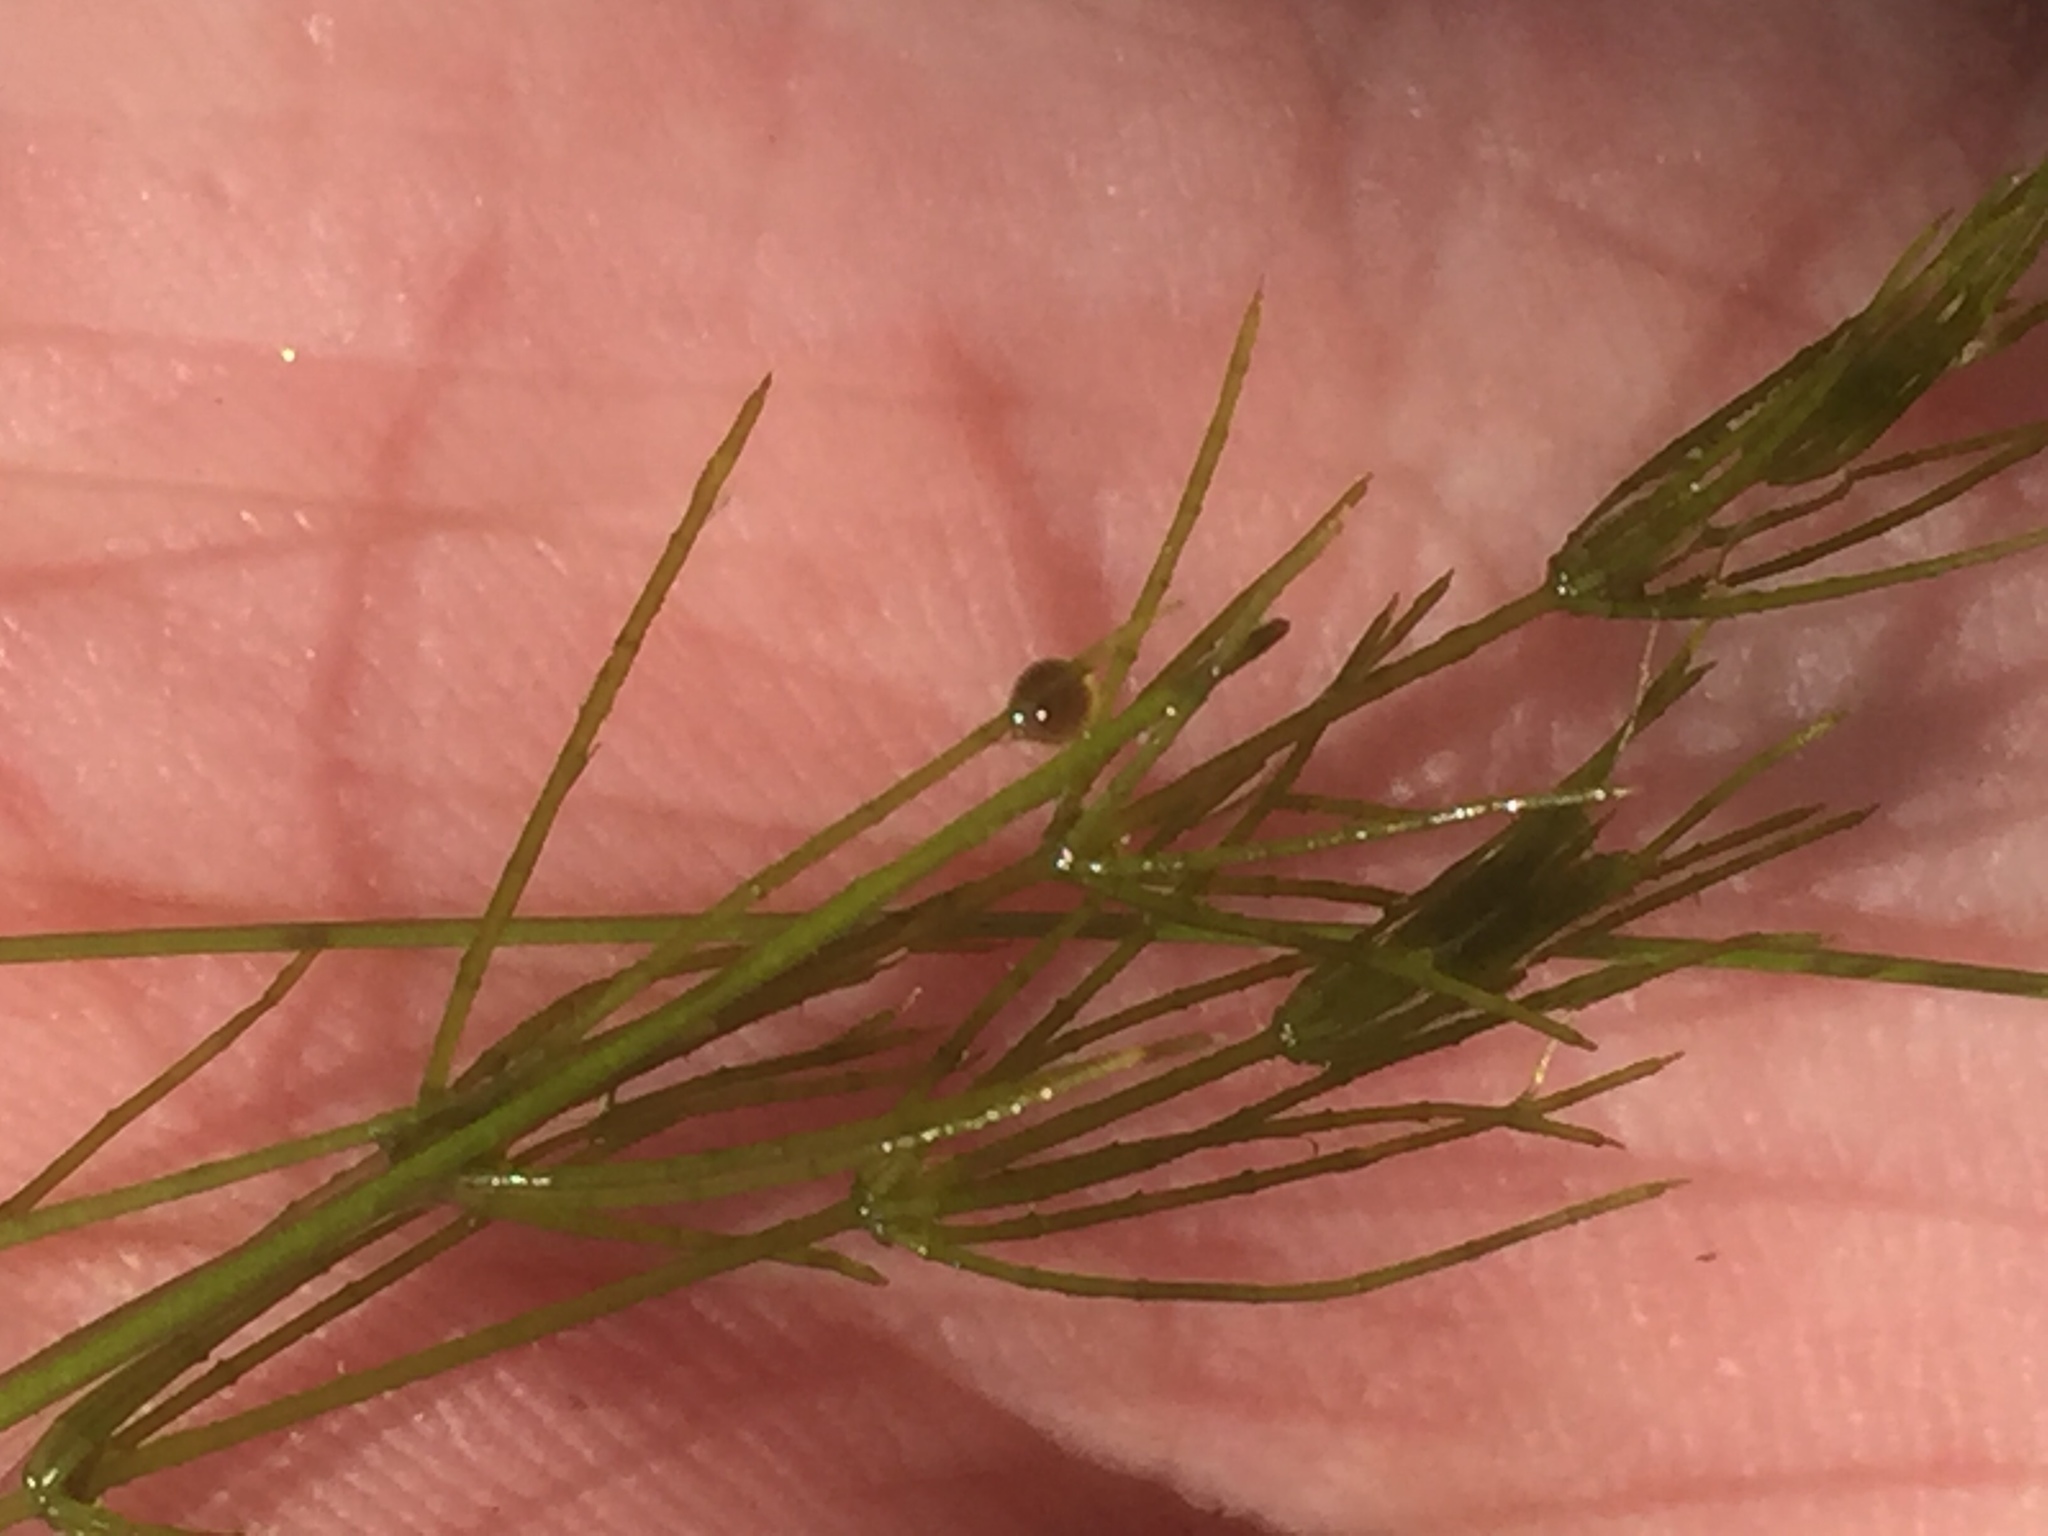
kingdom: Plantae
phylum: Charophyta
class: Charophyceae
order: Charales
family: Characeae
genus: Chara
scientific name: Chara virgata
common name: Delicate stonewort
